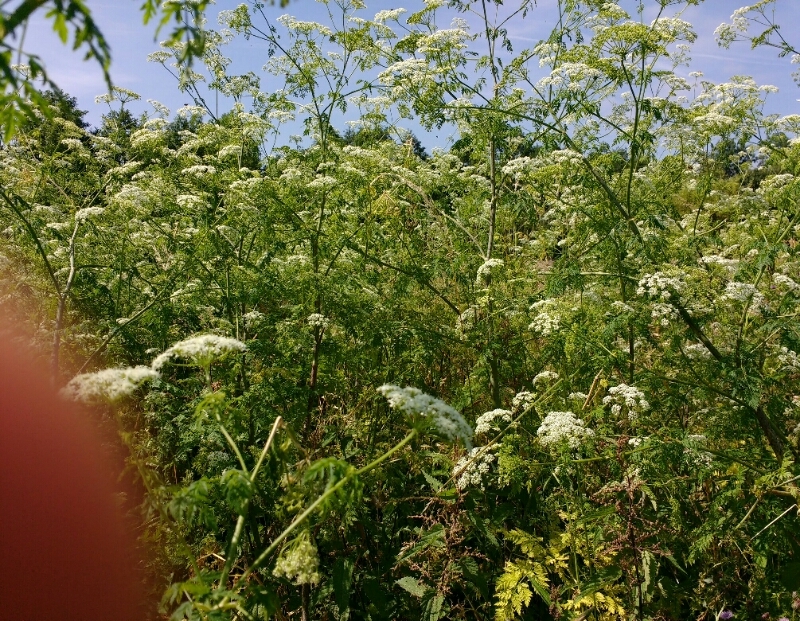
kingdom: Plantae
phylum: Tracheophyta
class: Magnoliopsida
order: Apiales
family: Apiaceae
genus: Conium
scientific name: Conium maculatum
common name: Hemlock
